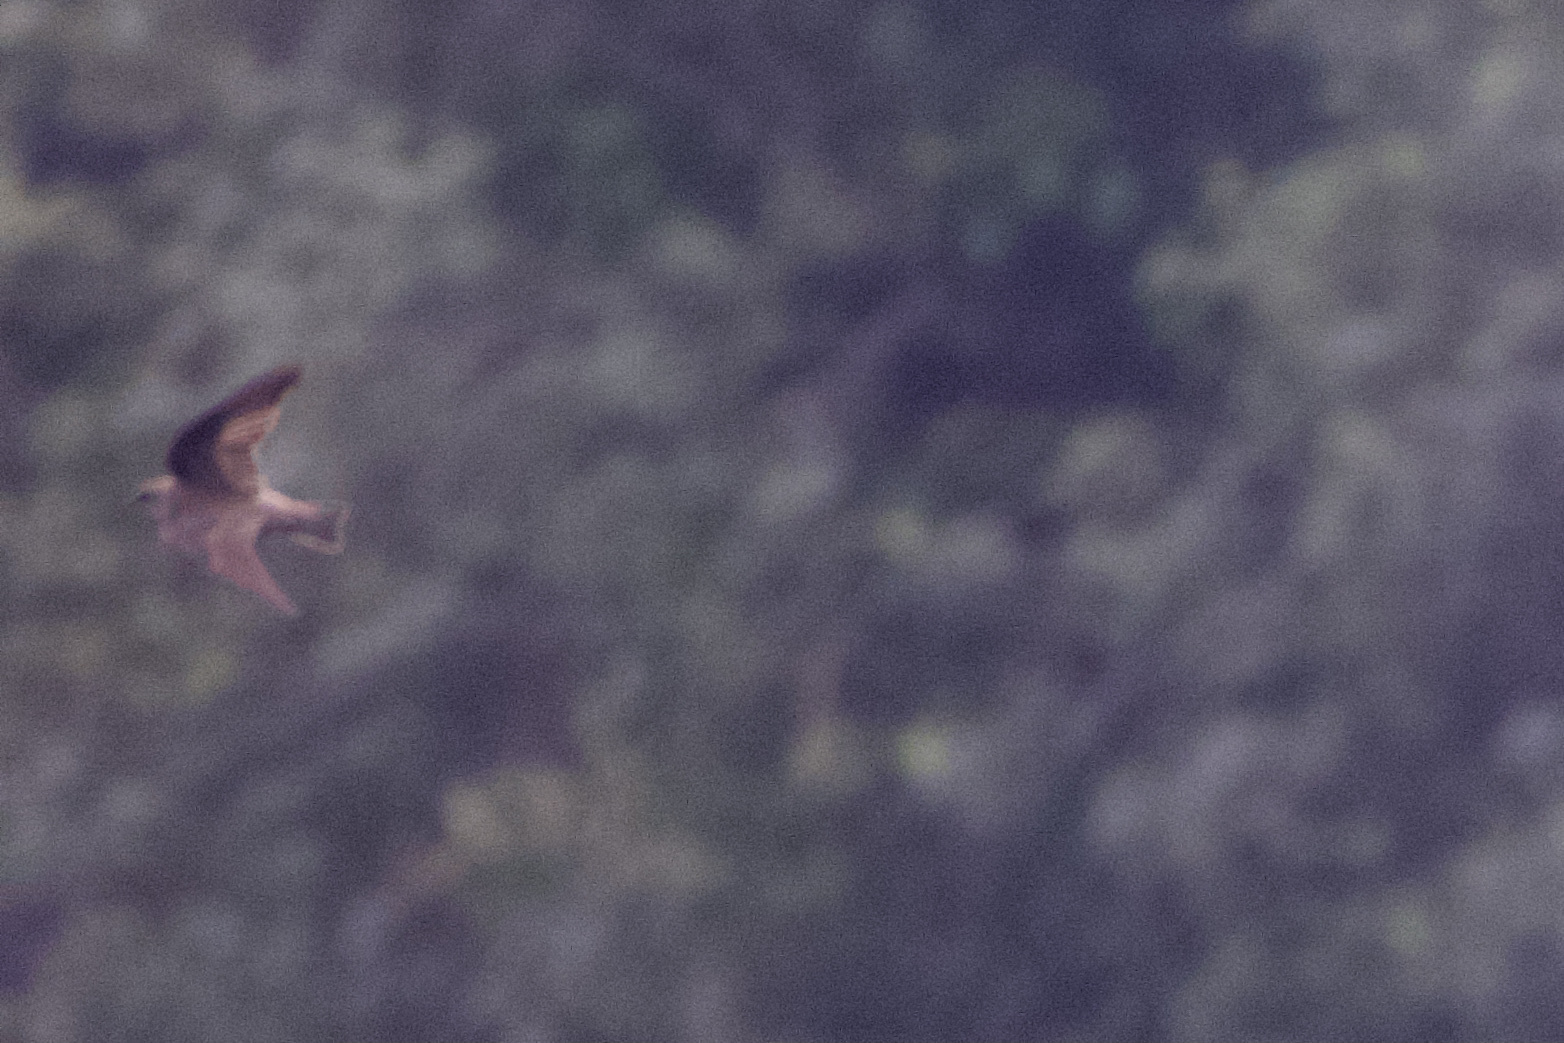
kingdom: Animalia
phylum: Chordata
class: Aves
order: Passeriformes
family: Hirundinidae
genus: Stelgidopteryx
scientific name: Stelgidopteryx serripennis
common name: Northern rough-winged swallow
